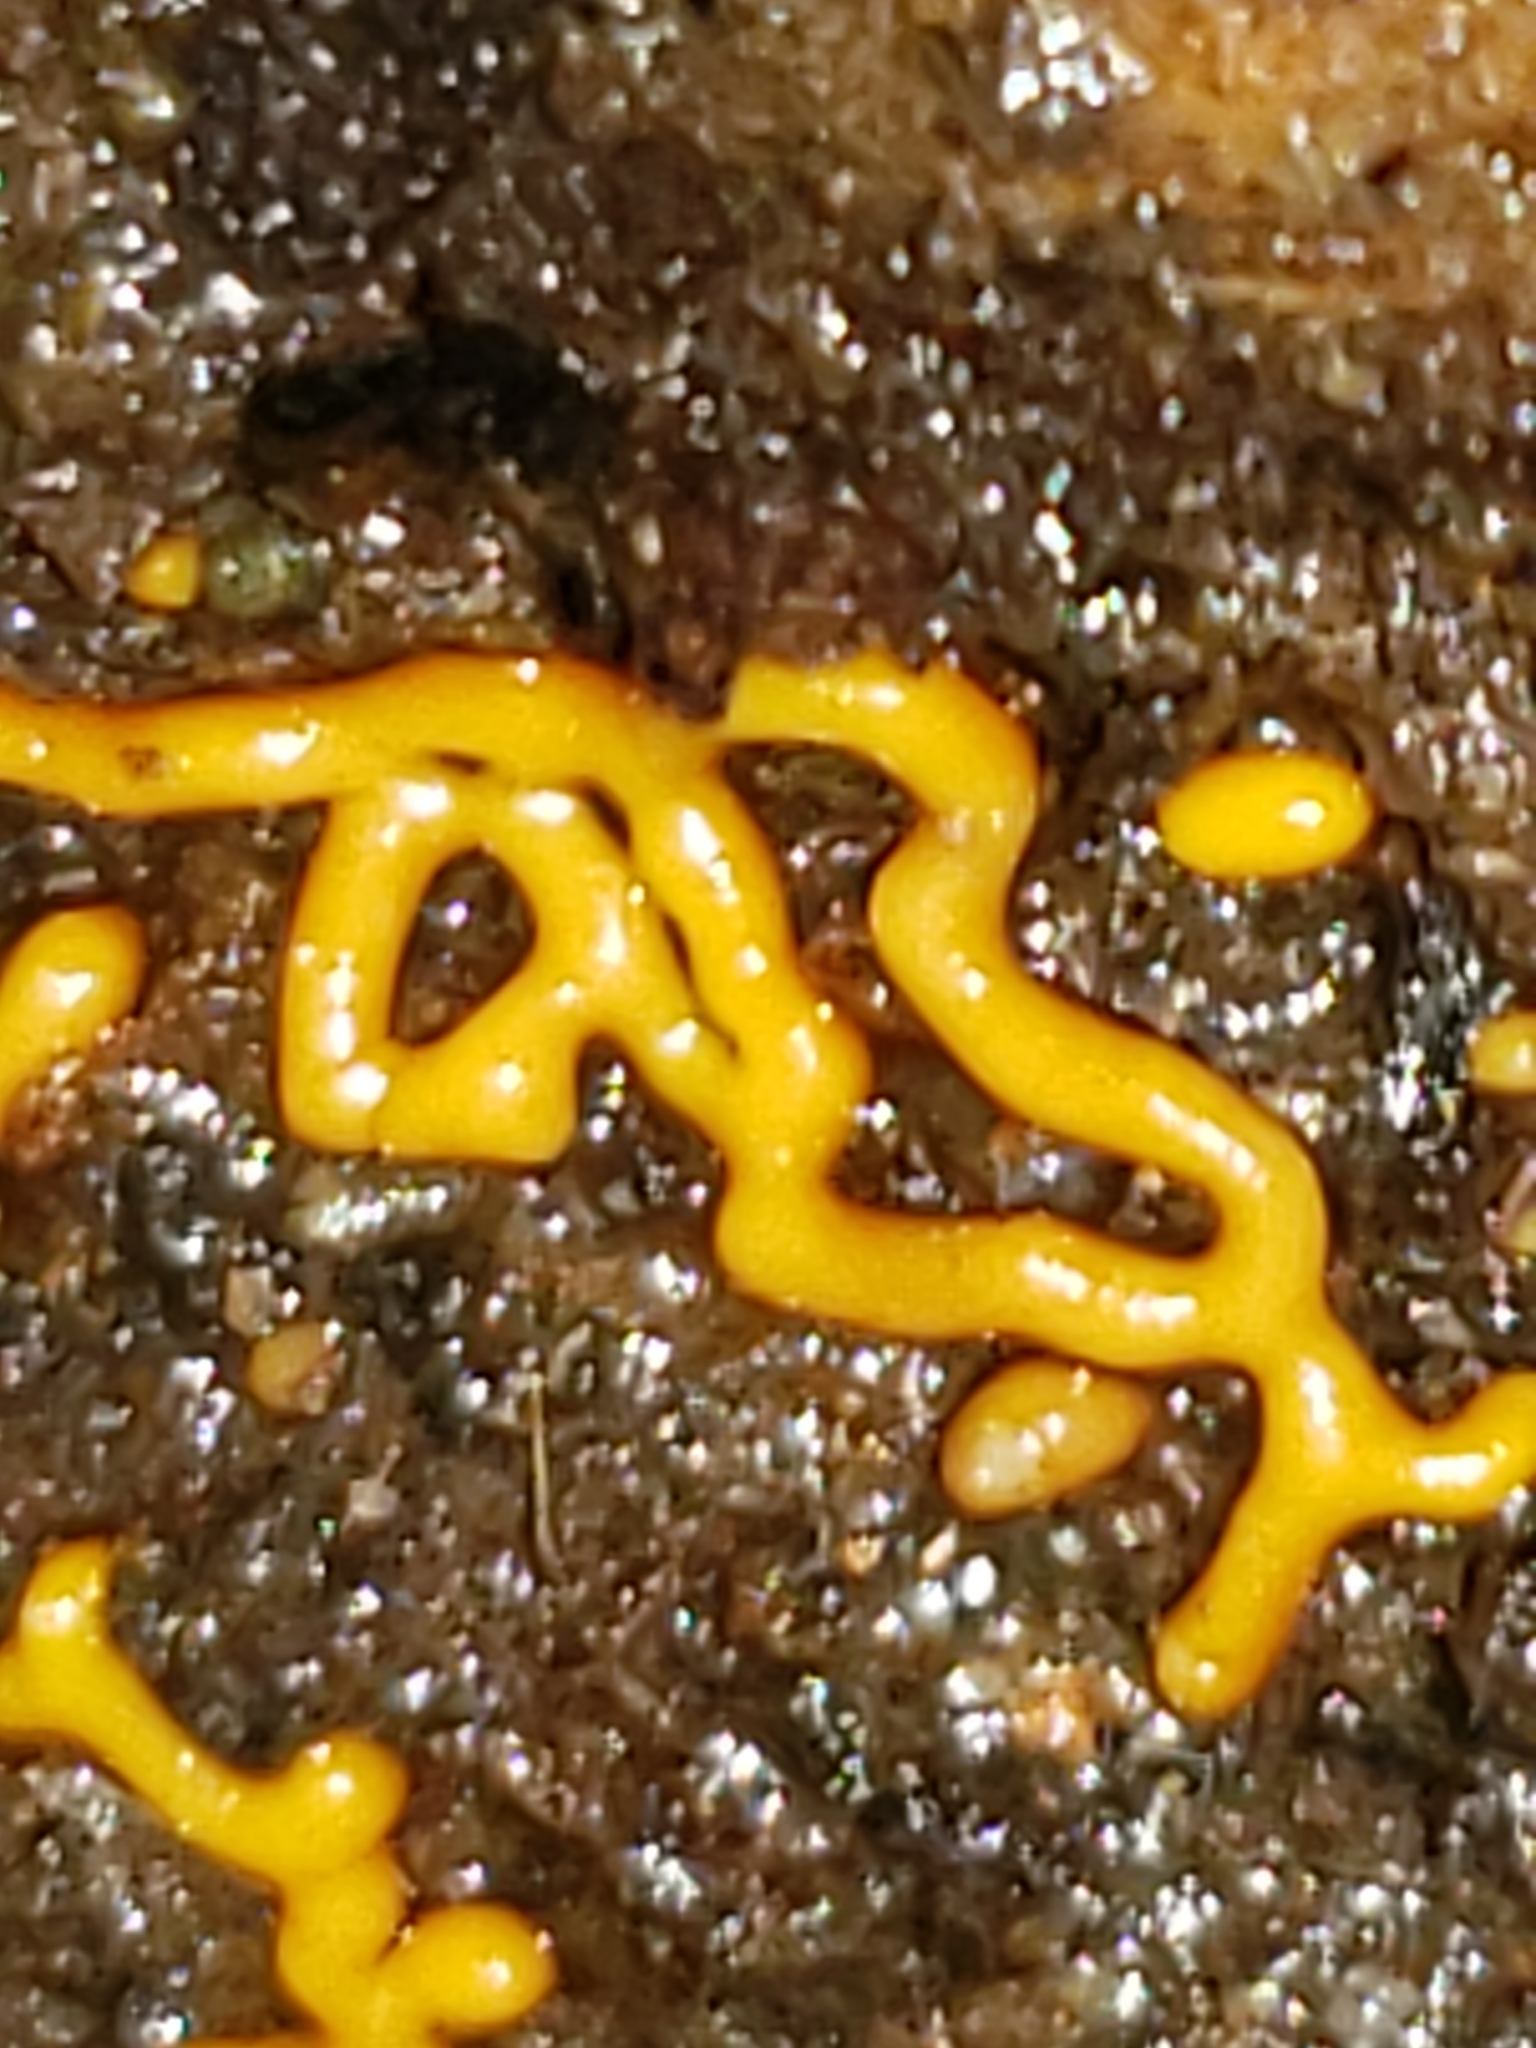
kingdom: Protozoa
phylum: Mycetozoa
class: Myxomycetes
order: Trichiales
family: Arcyriaceae
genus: Hemitrichia
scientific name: Hemitrichia serpula
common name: Pretzel slime mold
